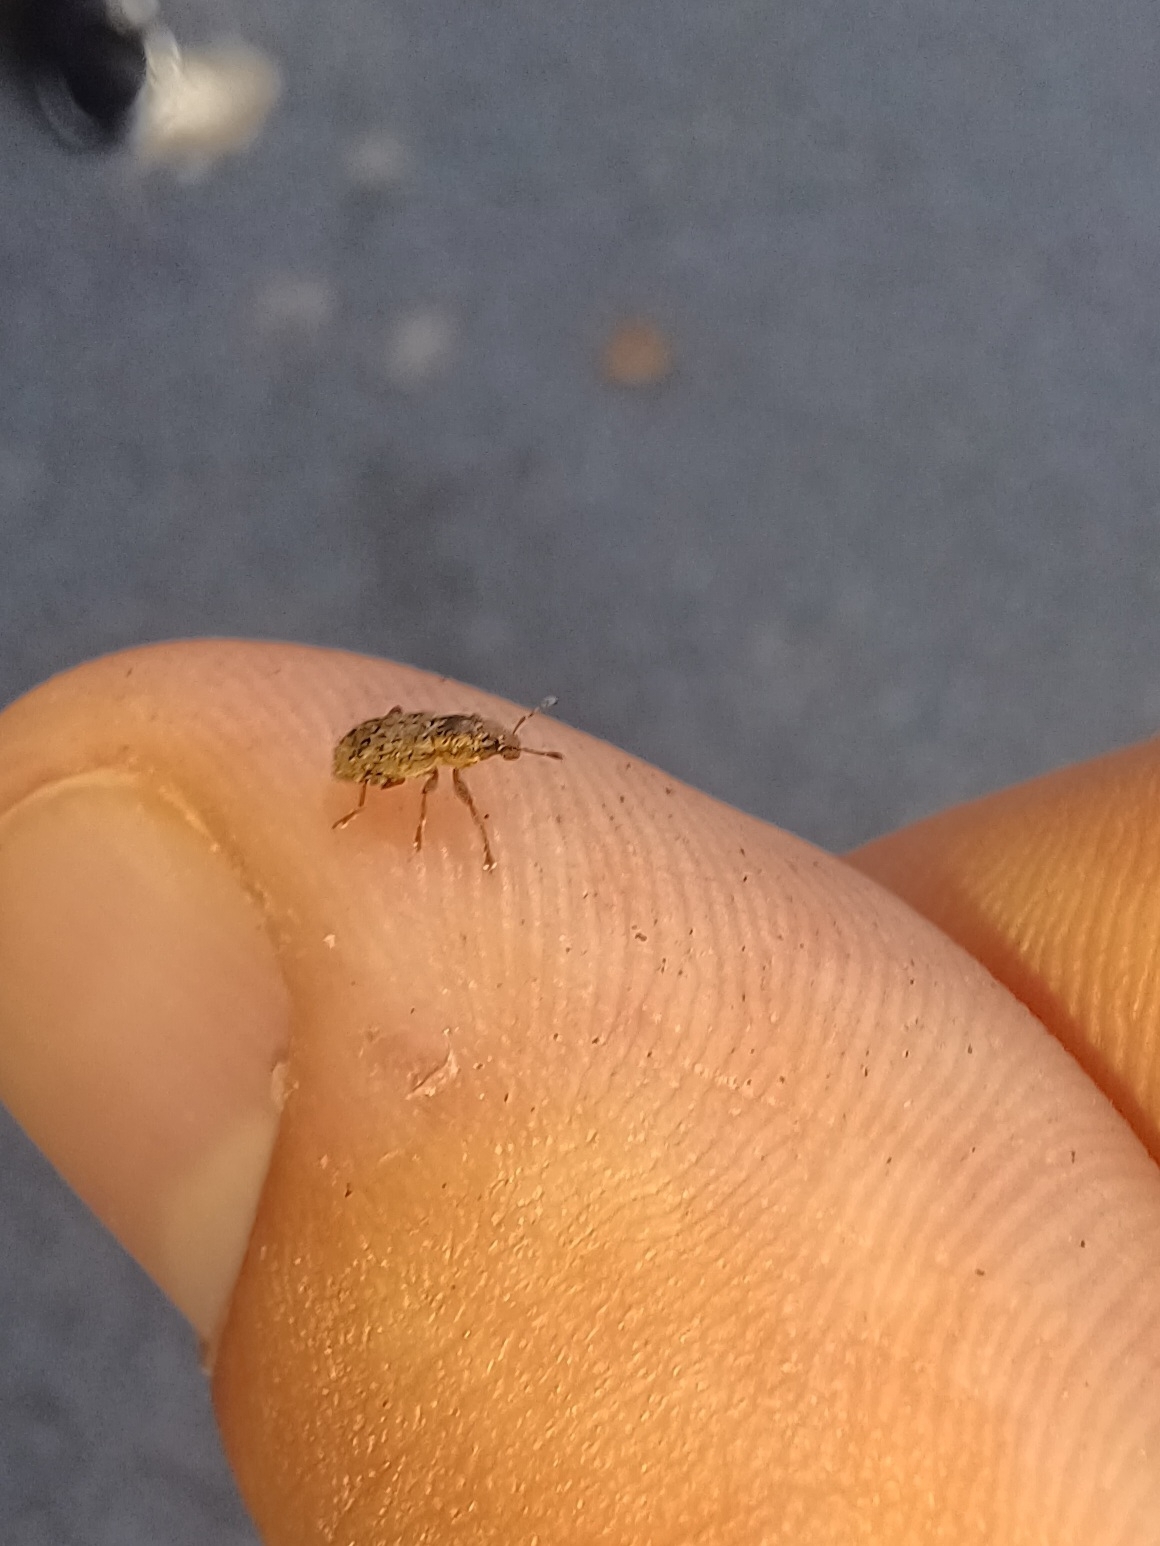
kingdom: Animalia
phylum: Arthropoda
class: Insecta
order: Coleoptera
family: Curculionidae
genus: Sitona
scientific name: Sitona hispidulus
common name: Clover weevil
